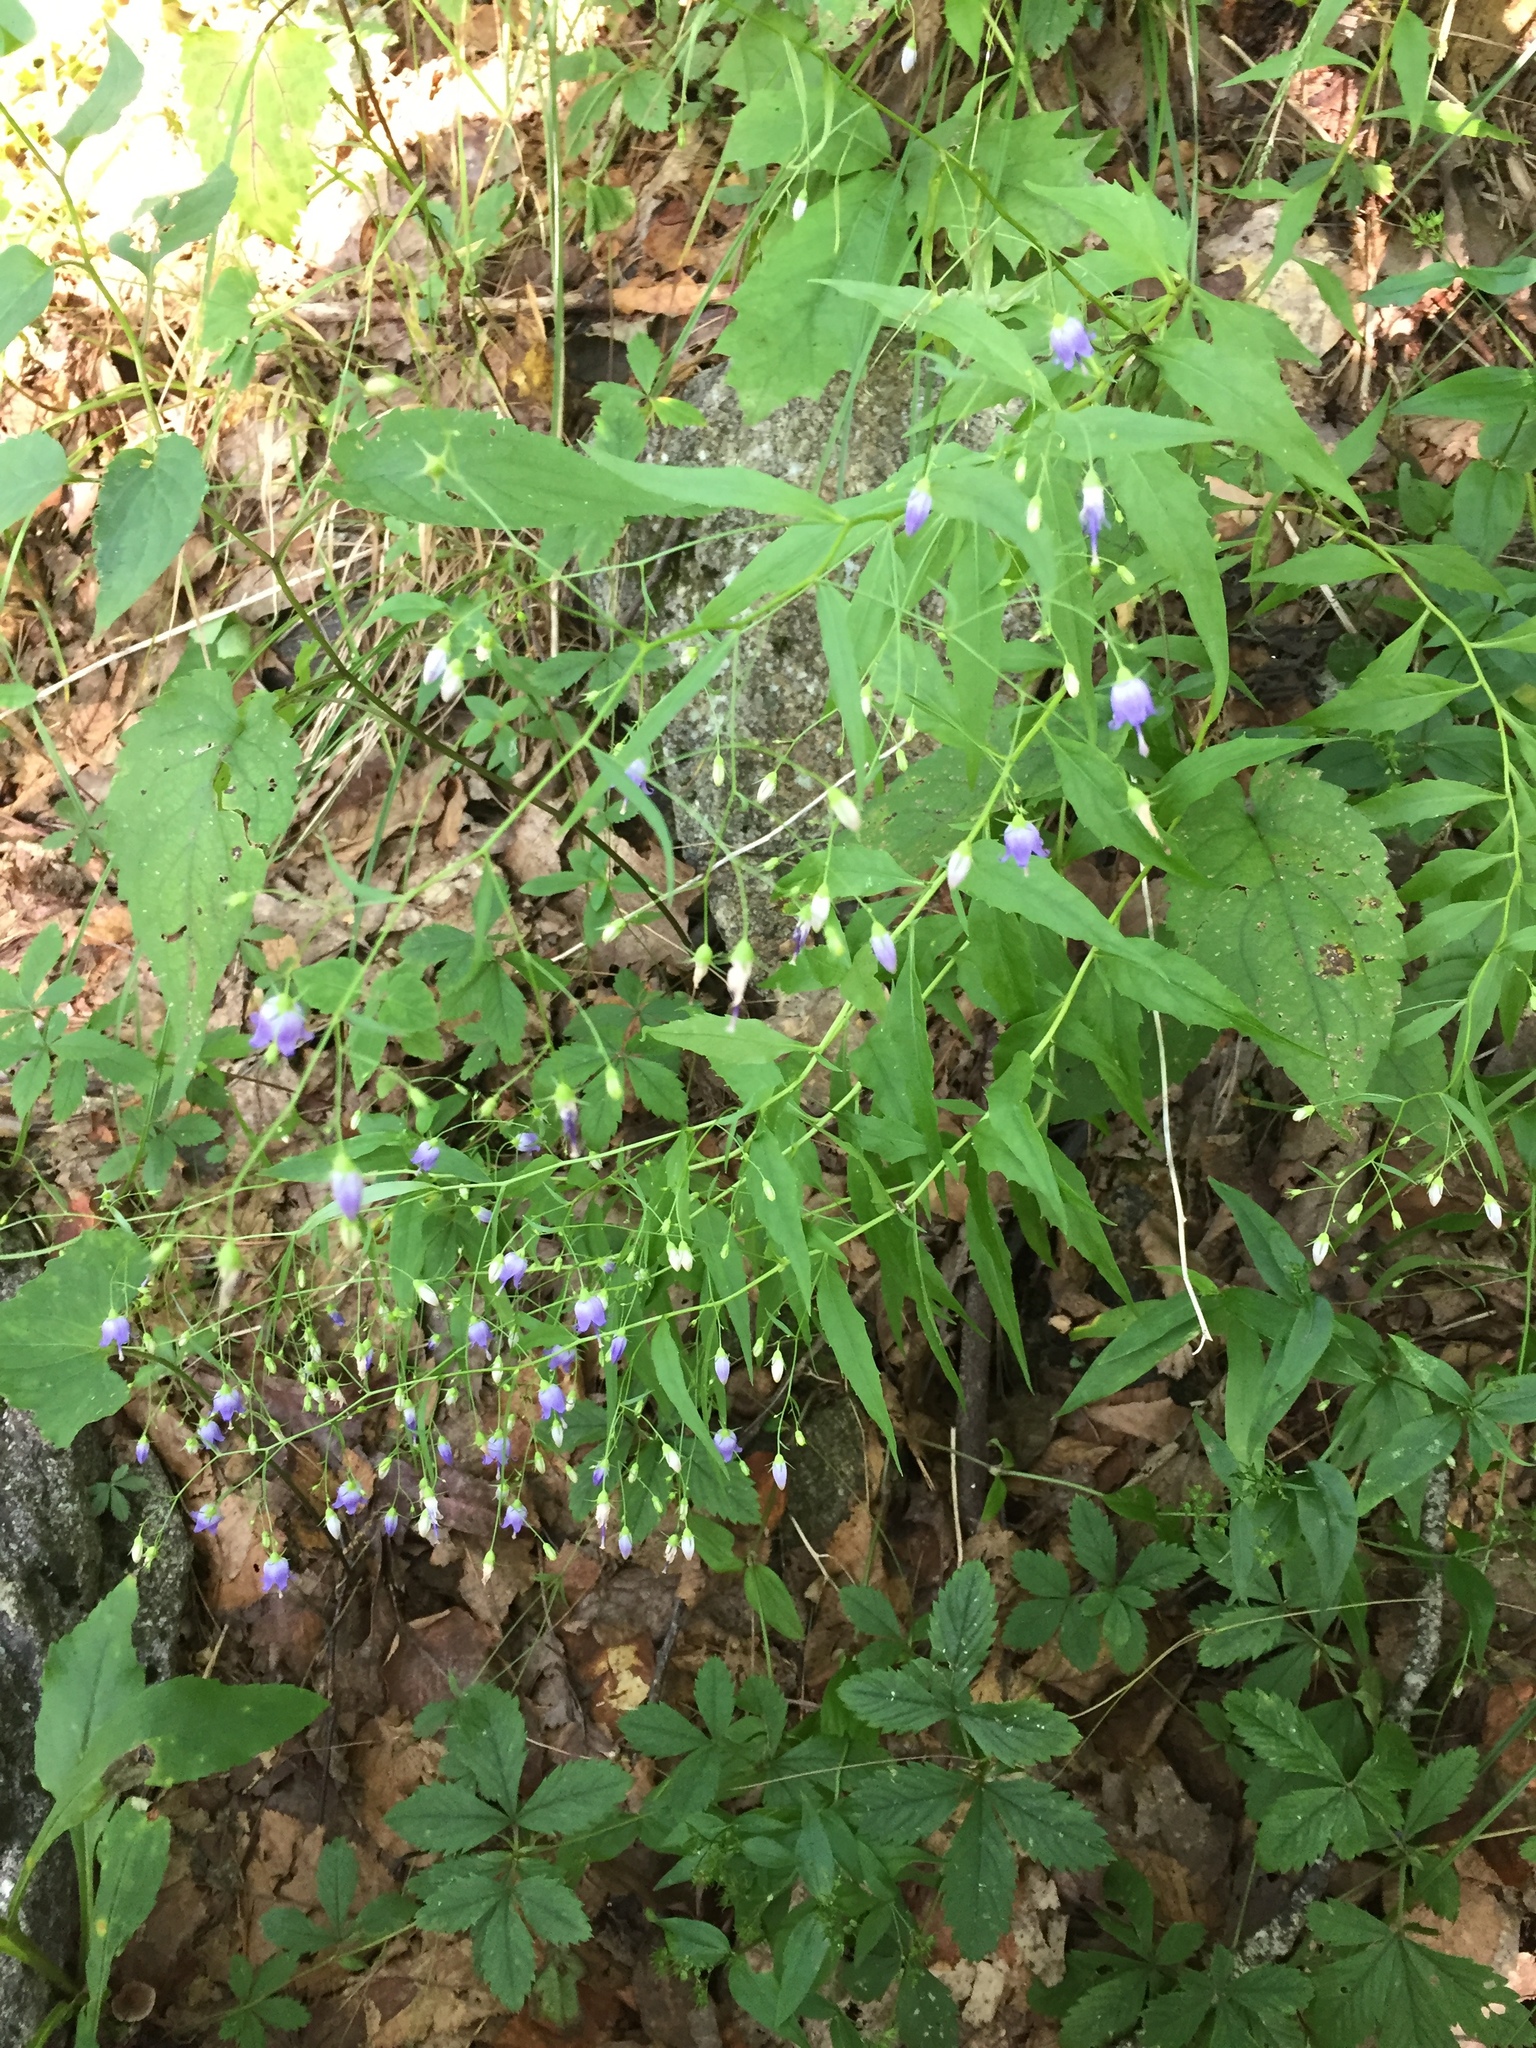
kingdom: Plantae
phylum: Tracheophyta
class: Magnoliopsida
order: Asterales
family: Campanulaceae
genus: Campanula
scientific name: Campanula divaricata
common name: Appalachian bellflower
